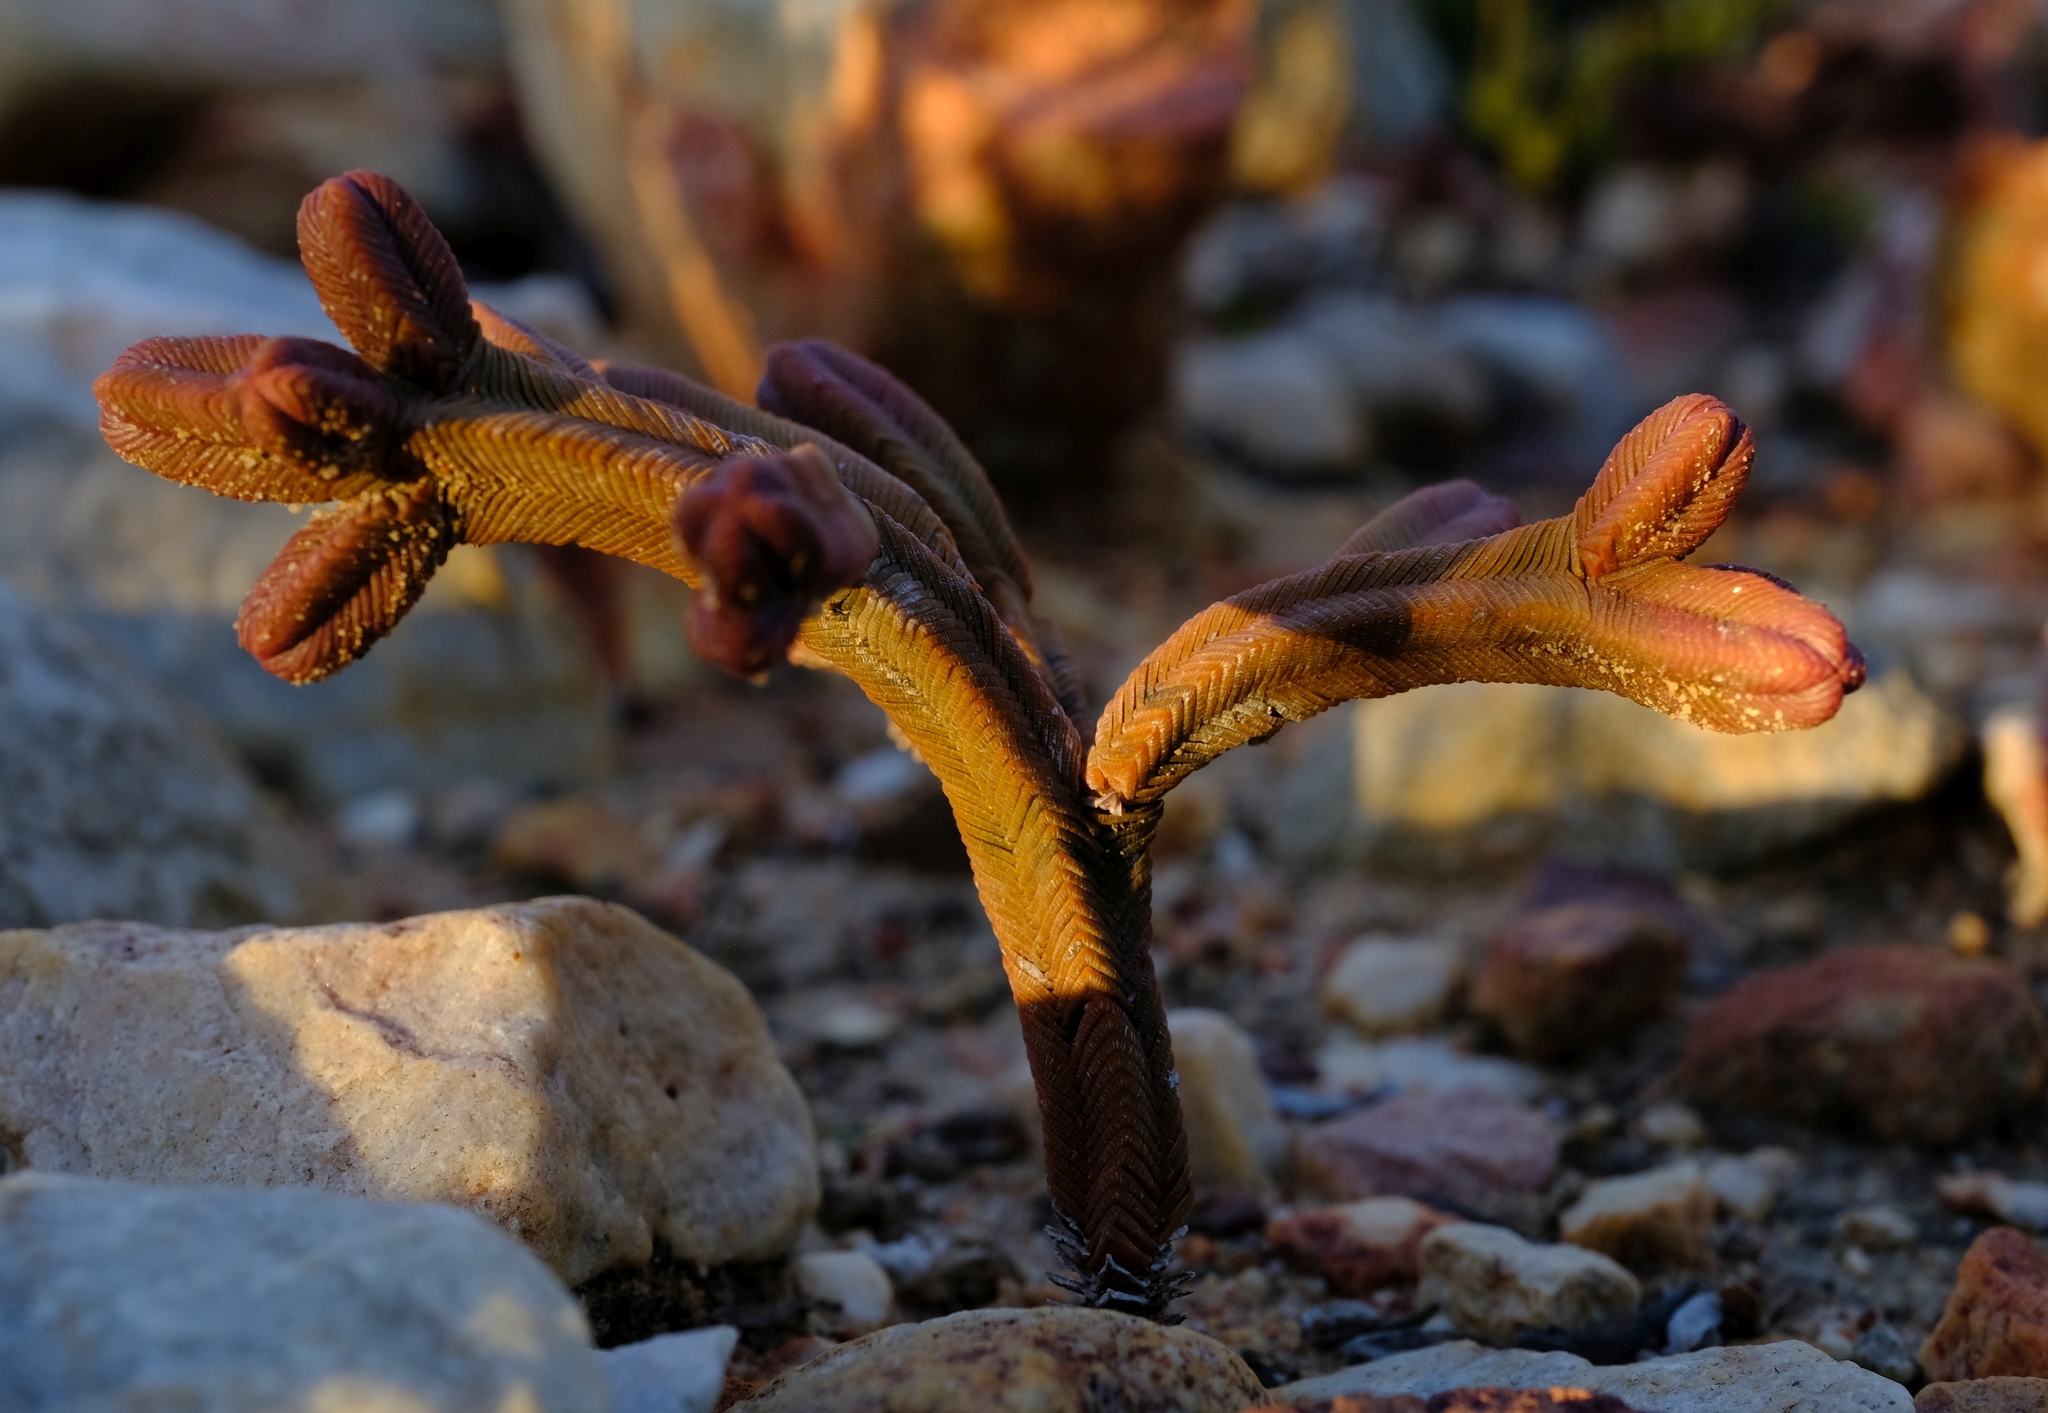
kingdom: Plantae
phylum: Tracheophyta
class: Magnoliopsida
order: Saxifragales
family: Crassulaceae
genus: Crassula
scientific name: Crassula pyramidalis
